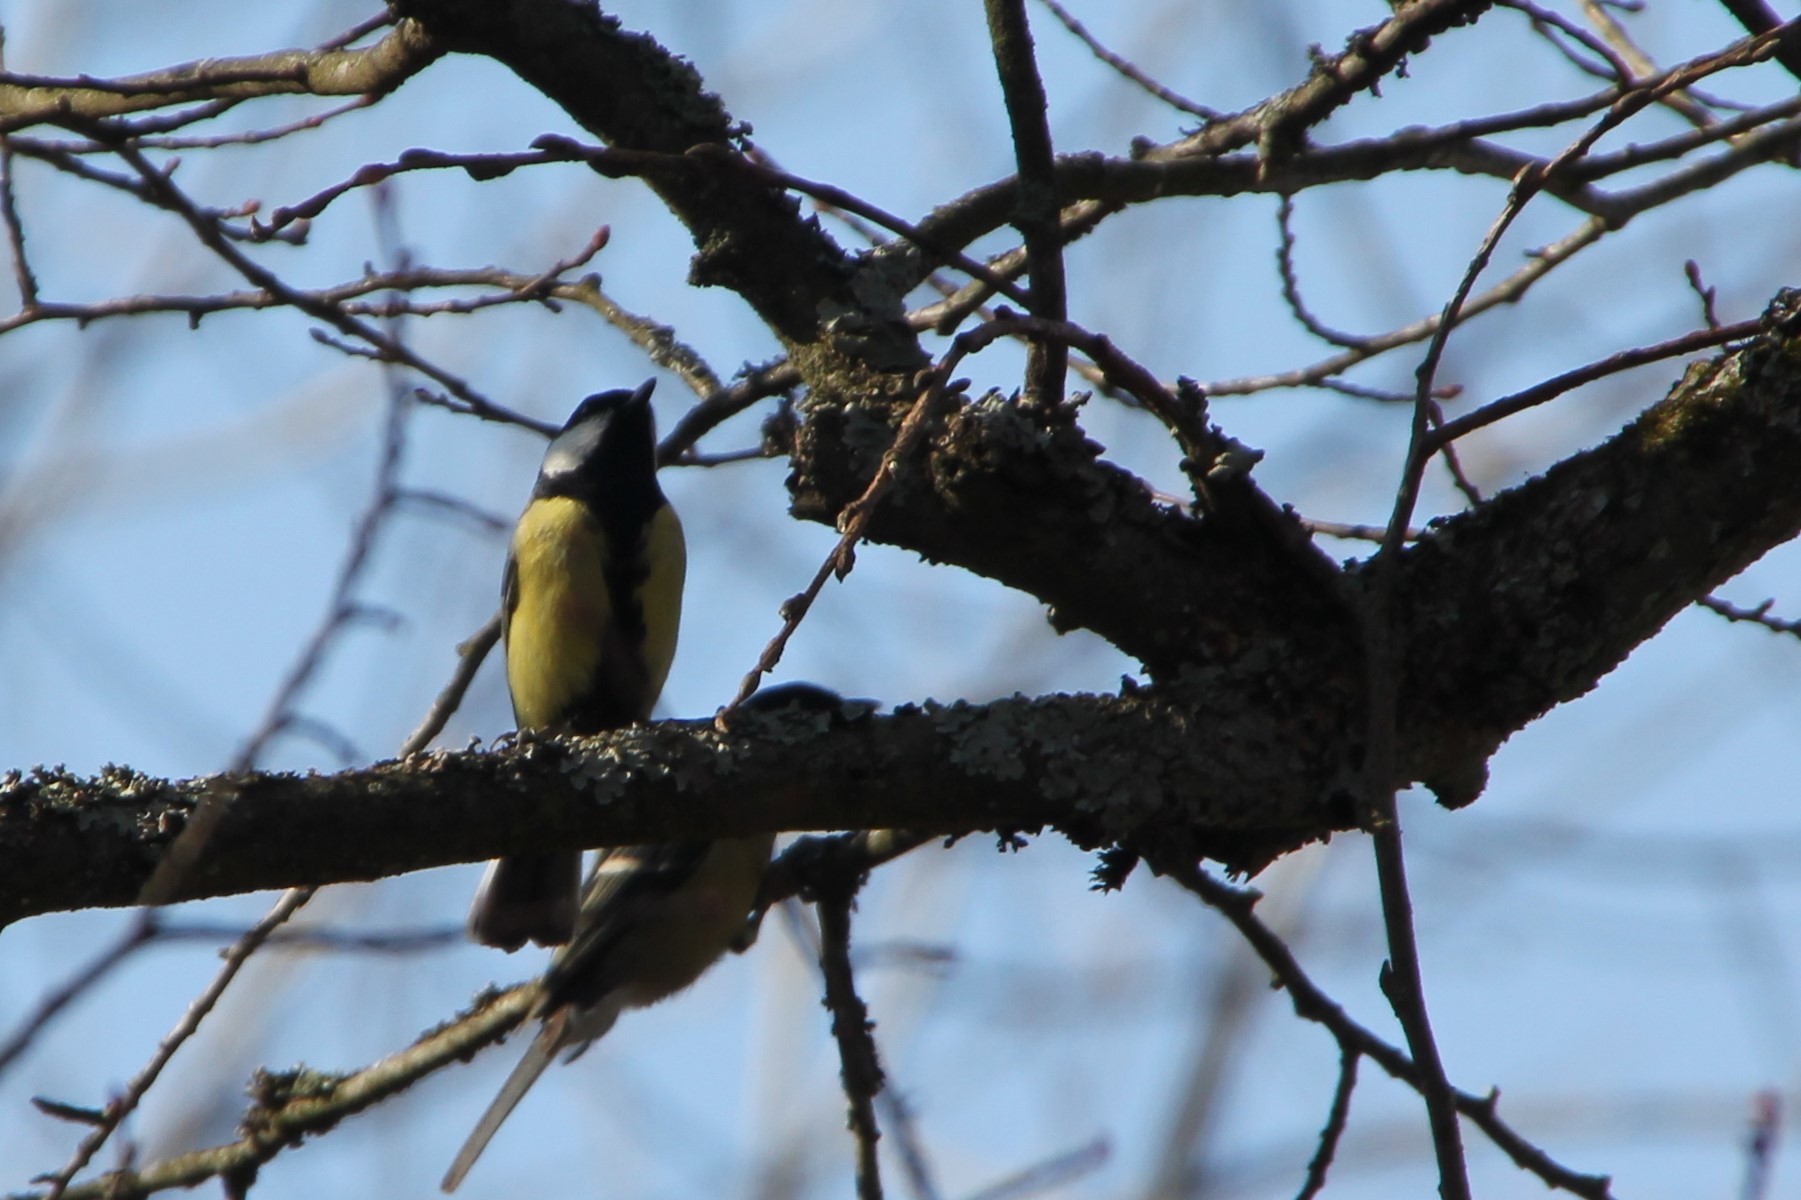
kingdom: Animalia
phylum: Chordata
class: Aves
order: Passeriformes
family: Paridae
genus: Parus
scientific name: Parus major
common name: Great tit
